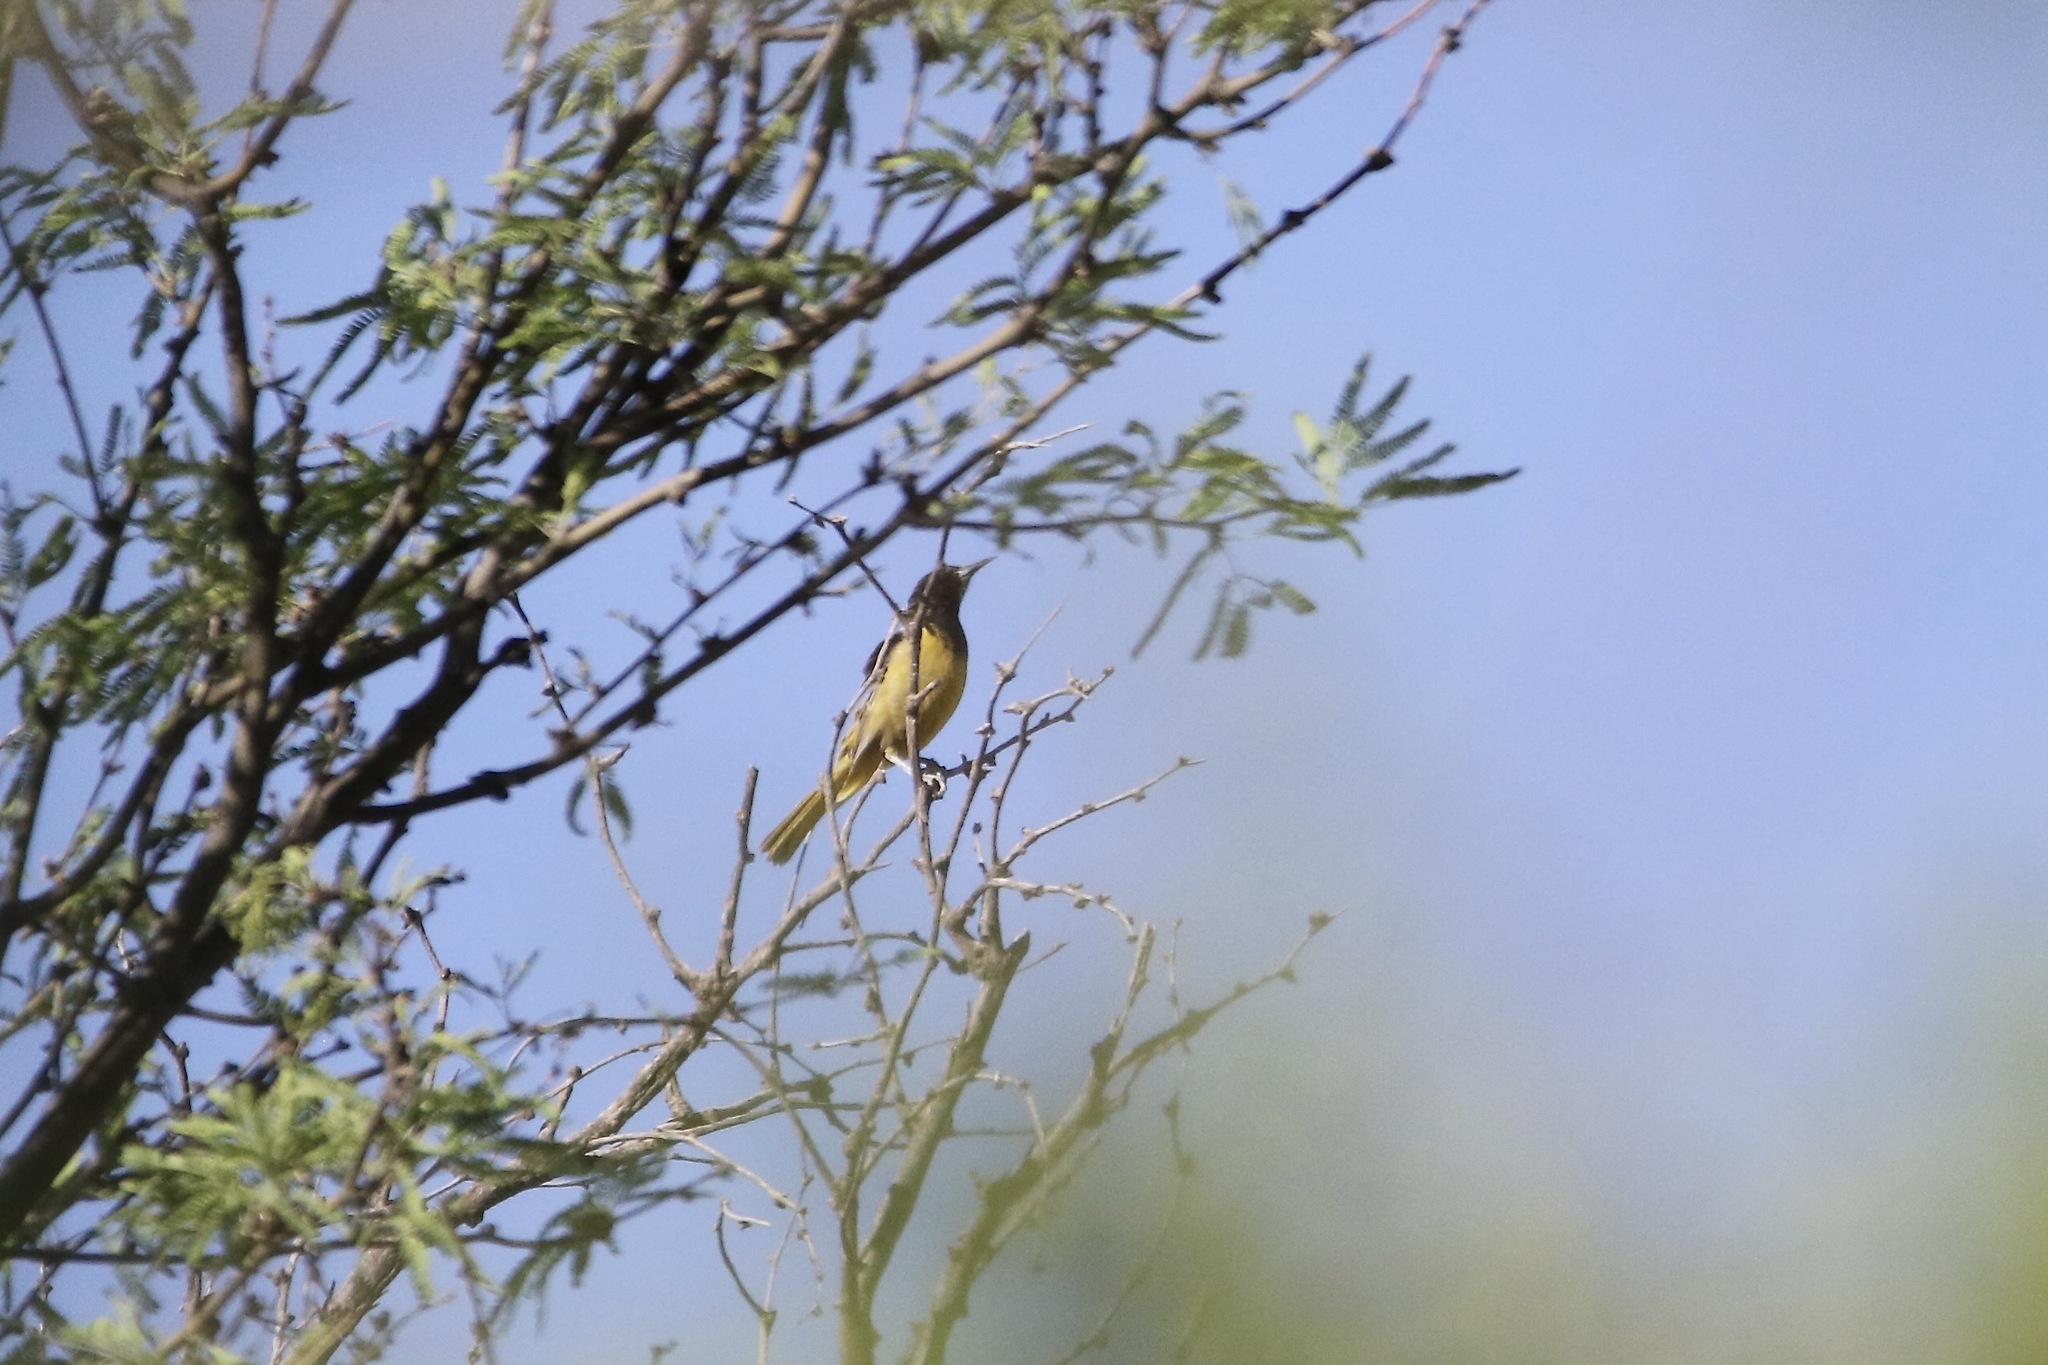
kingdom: Animalia
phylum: Chordata
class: Aves
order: Passeriformes
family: Icteridae
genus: Icterus
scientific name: Icterus parisorum
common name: Scott's oriole
